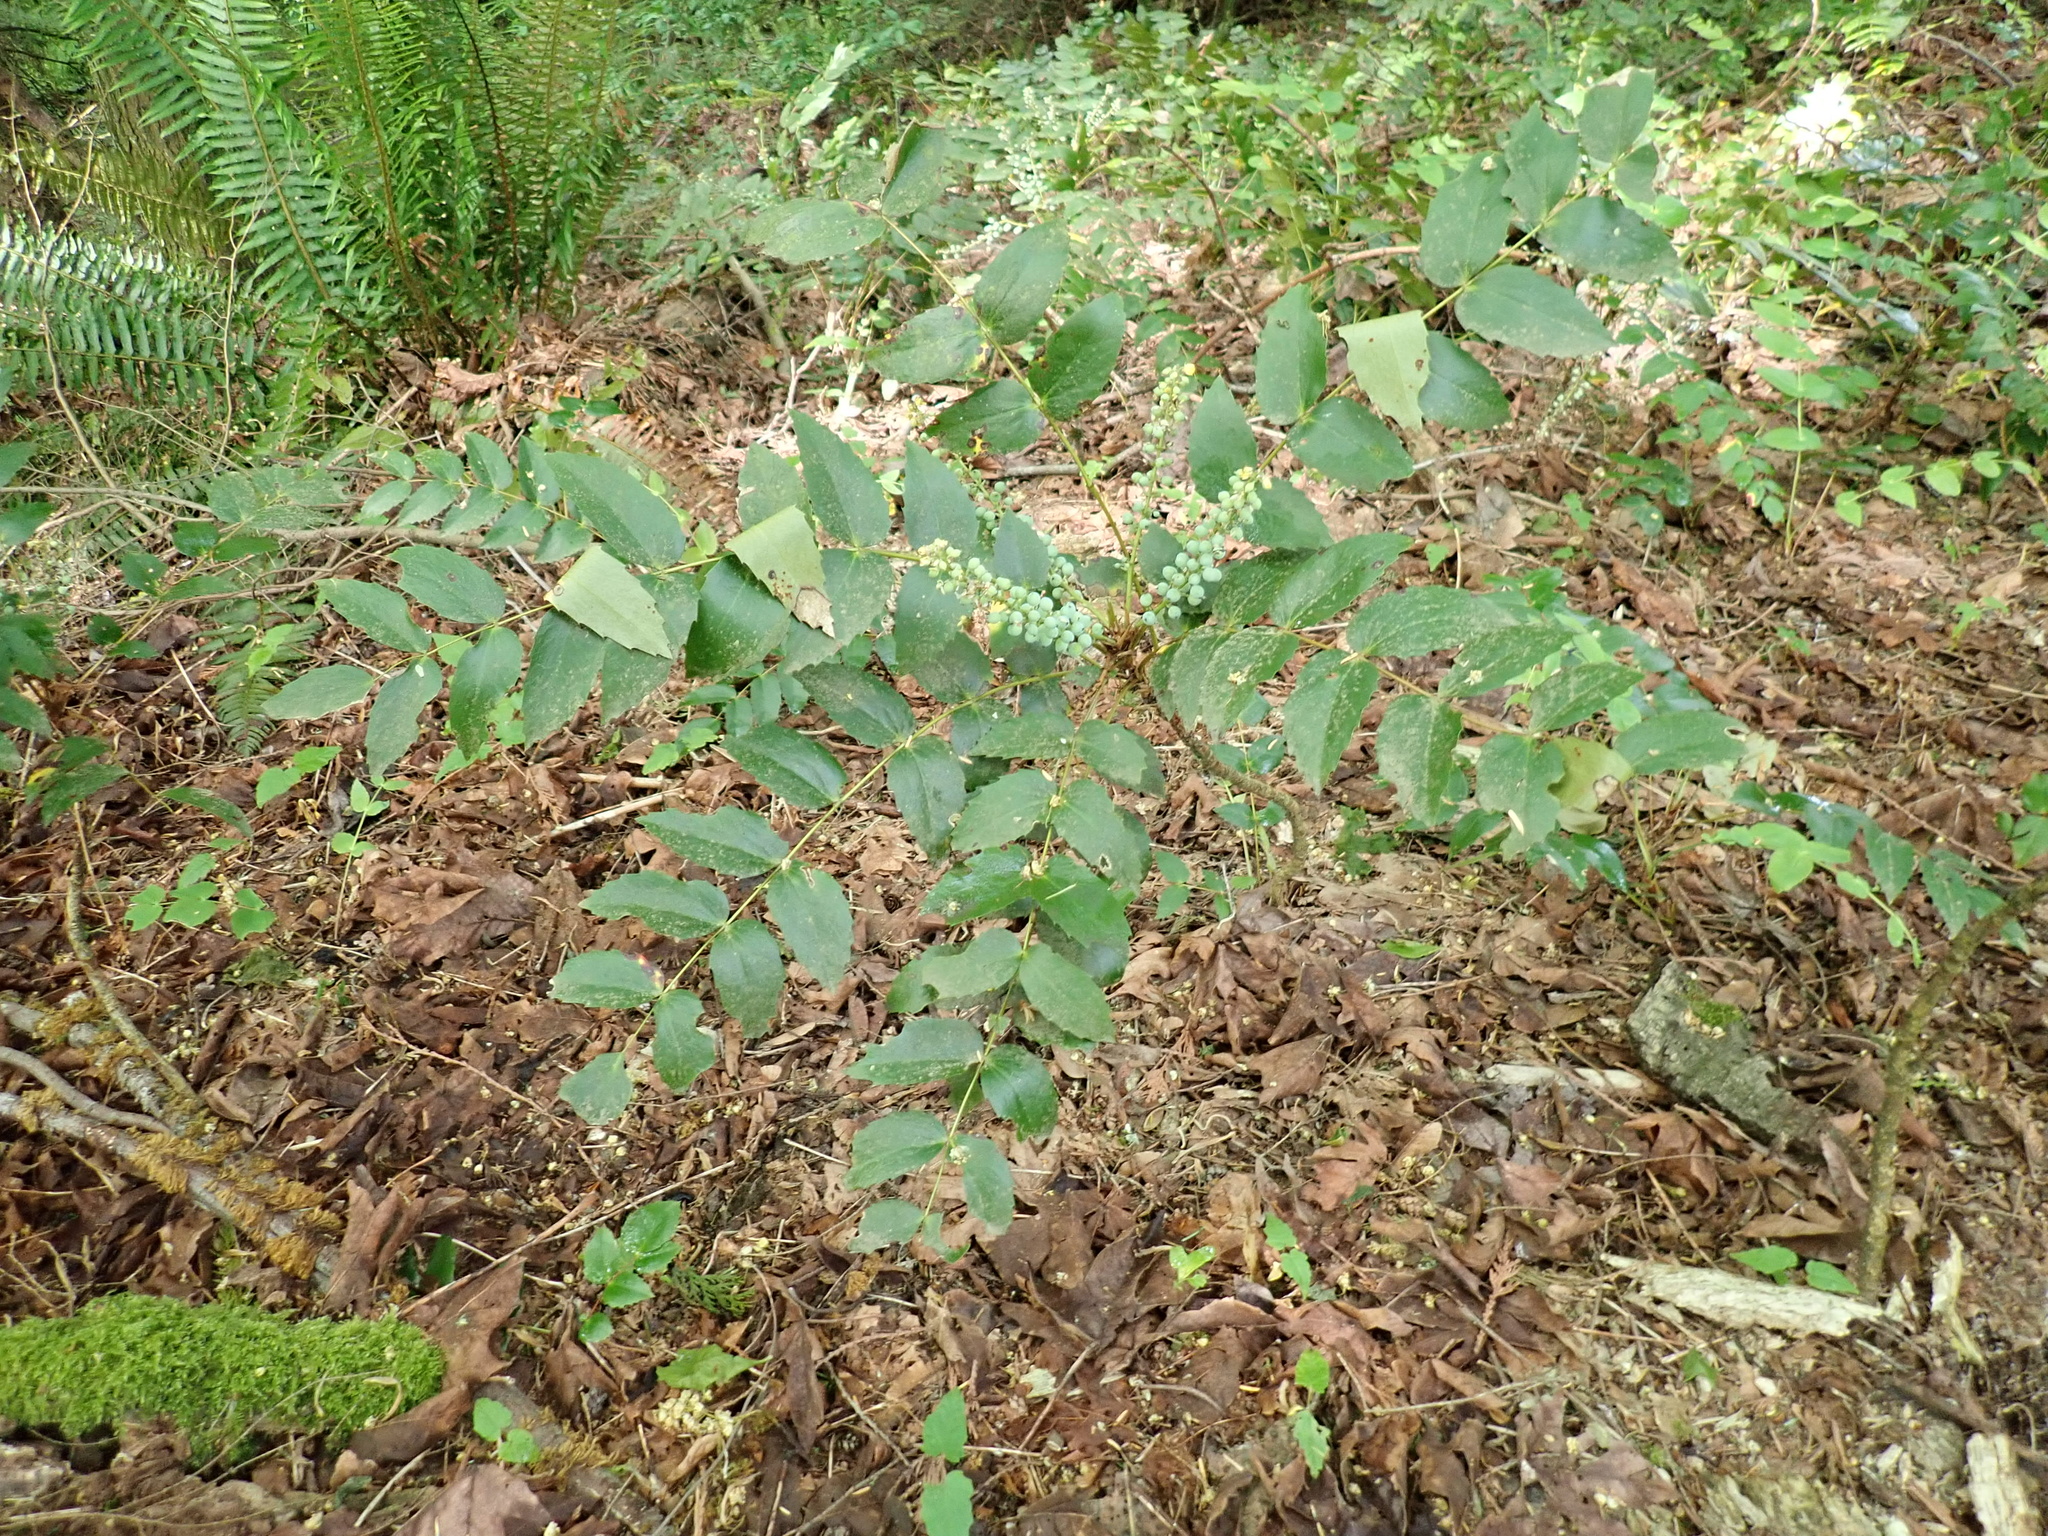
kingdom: Plantae
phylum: Tracheophyta
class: Magnoliopsida
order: Ranunculales
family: Berberidaceae
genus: Mahonia
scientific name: Mahonia nervosa
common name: Cascade oregon-grape
